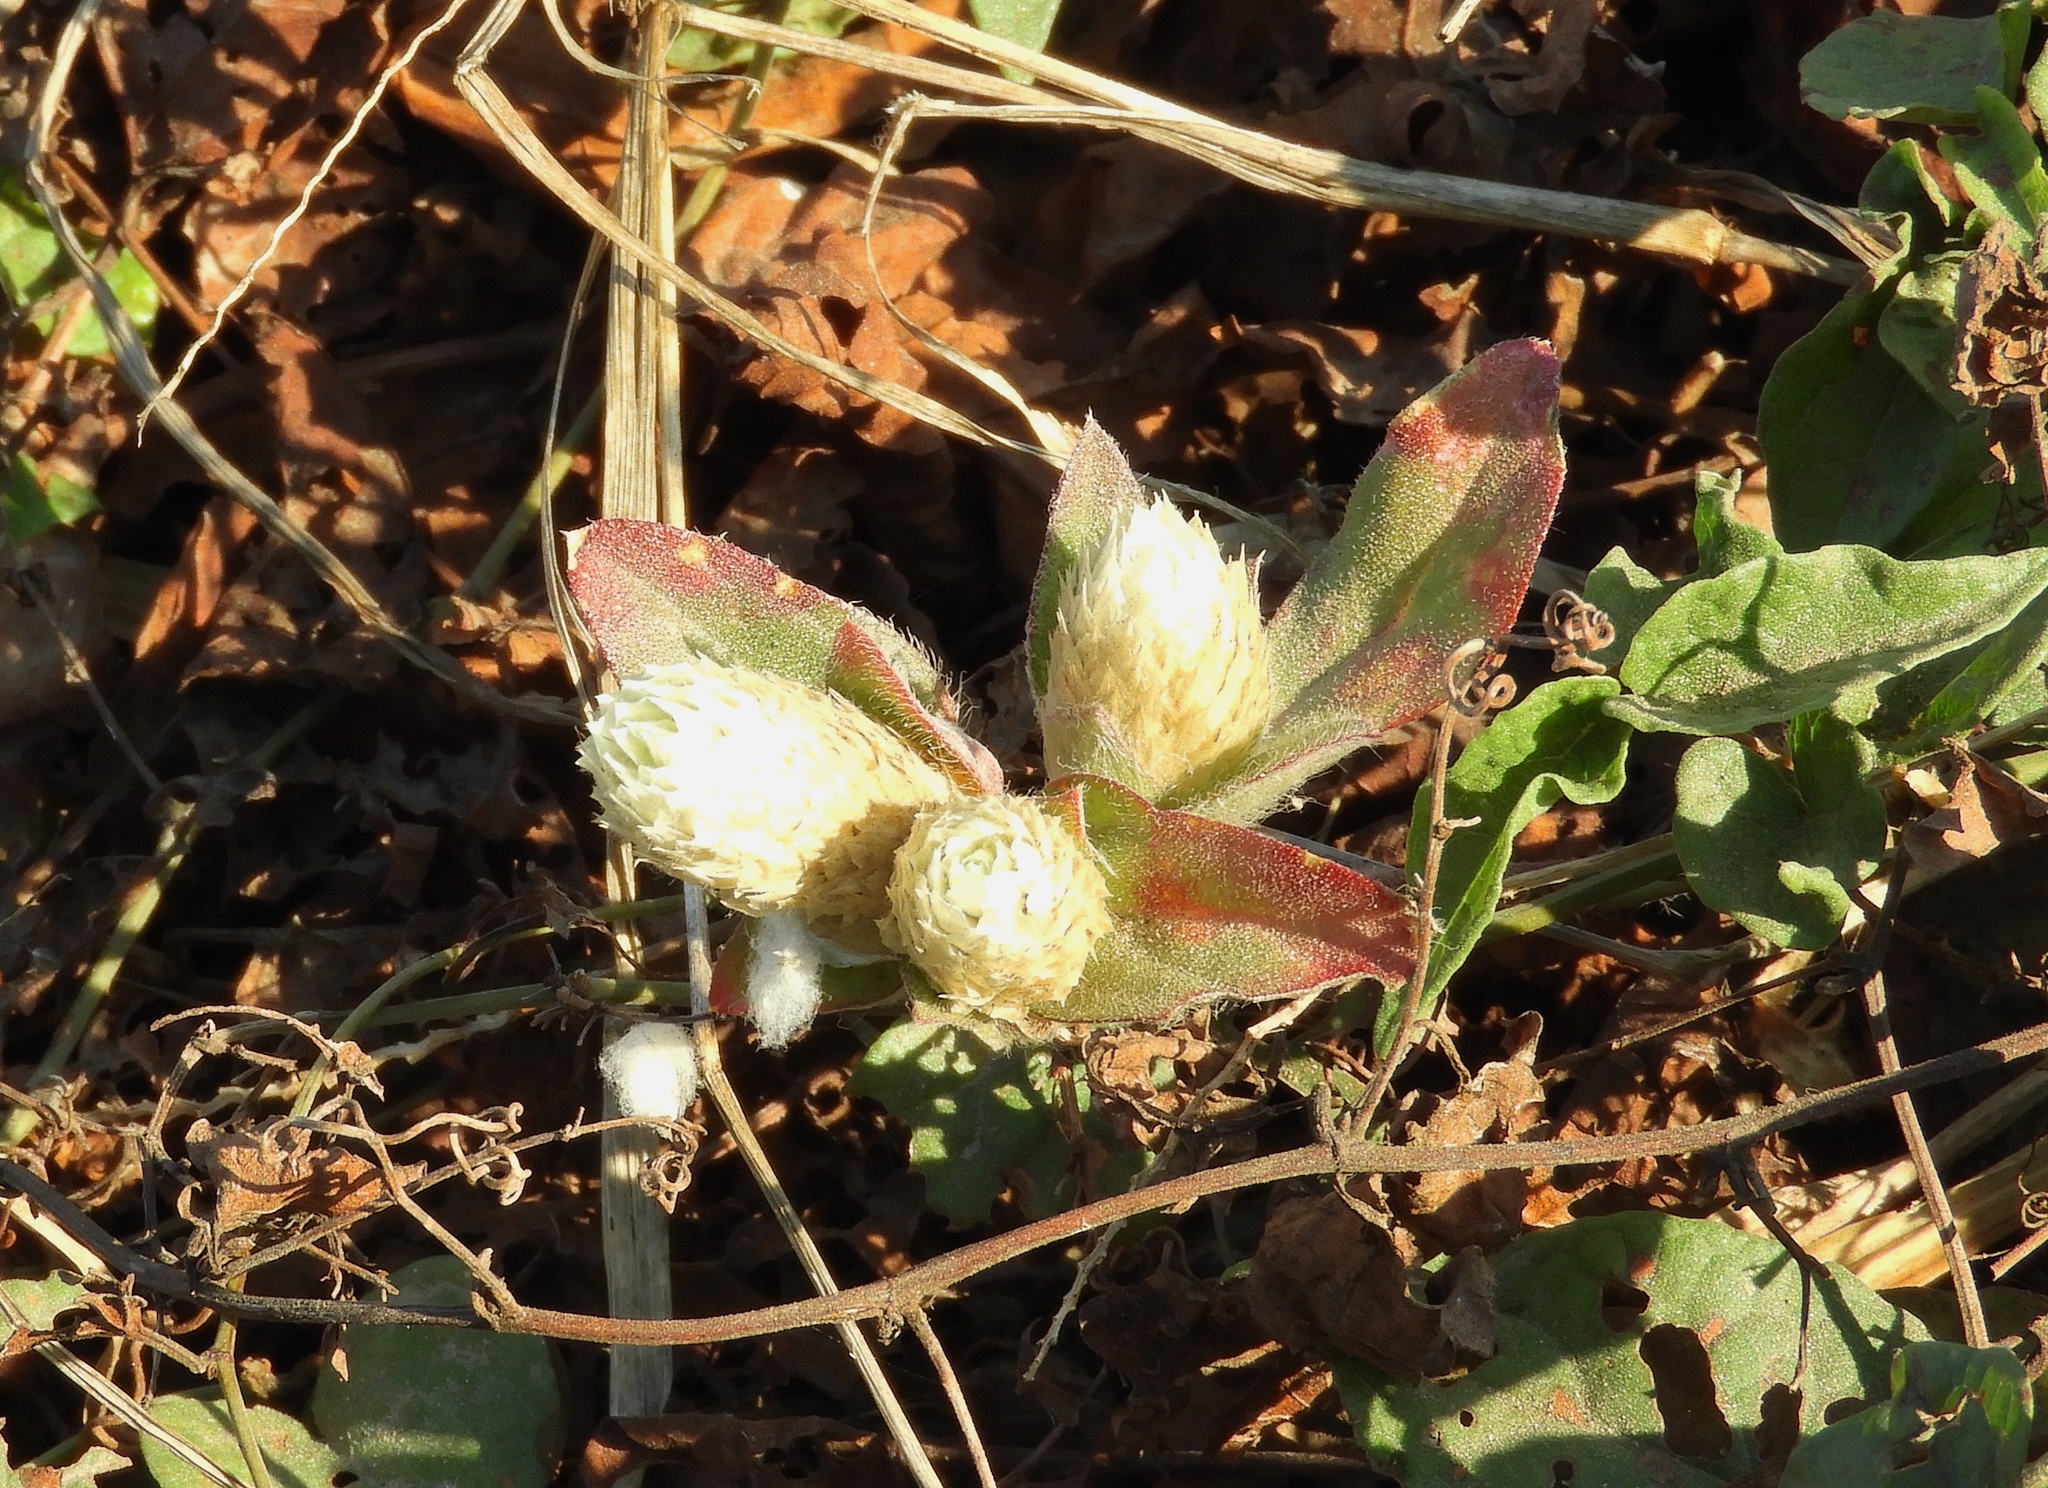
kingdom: Plantae
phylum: Tracheophyta
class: Magnoliopsida
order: Caryophyllales
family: Amaranthaceae
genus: Alternanthera
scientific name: Alternanthera caracasana
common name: Washerwoman
